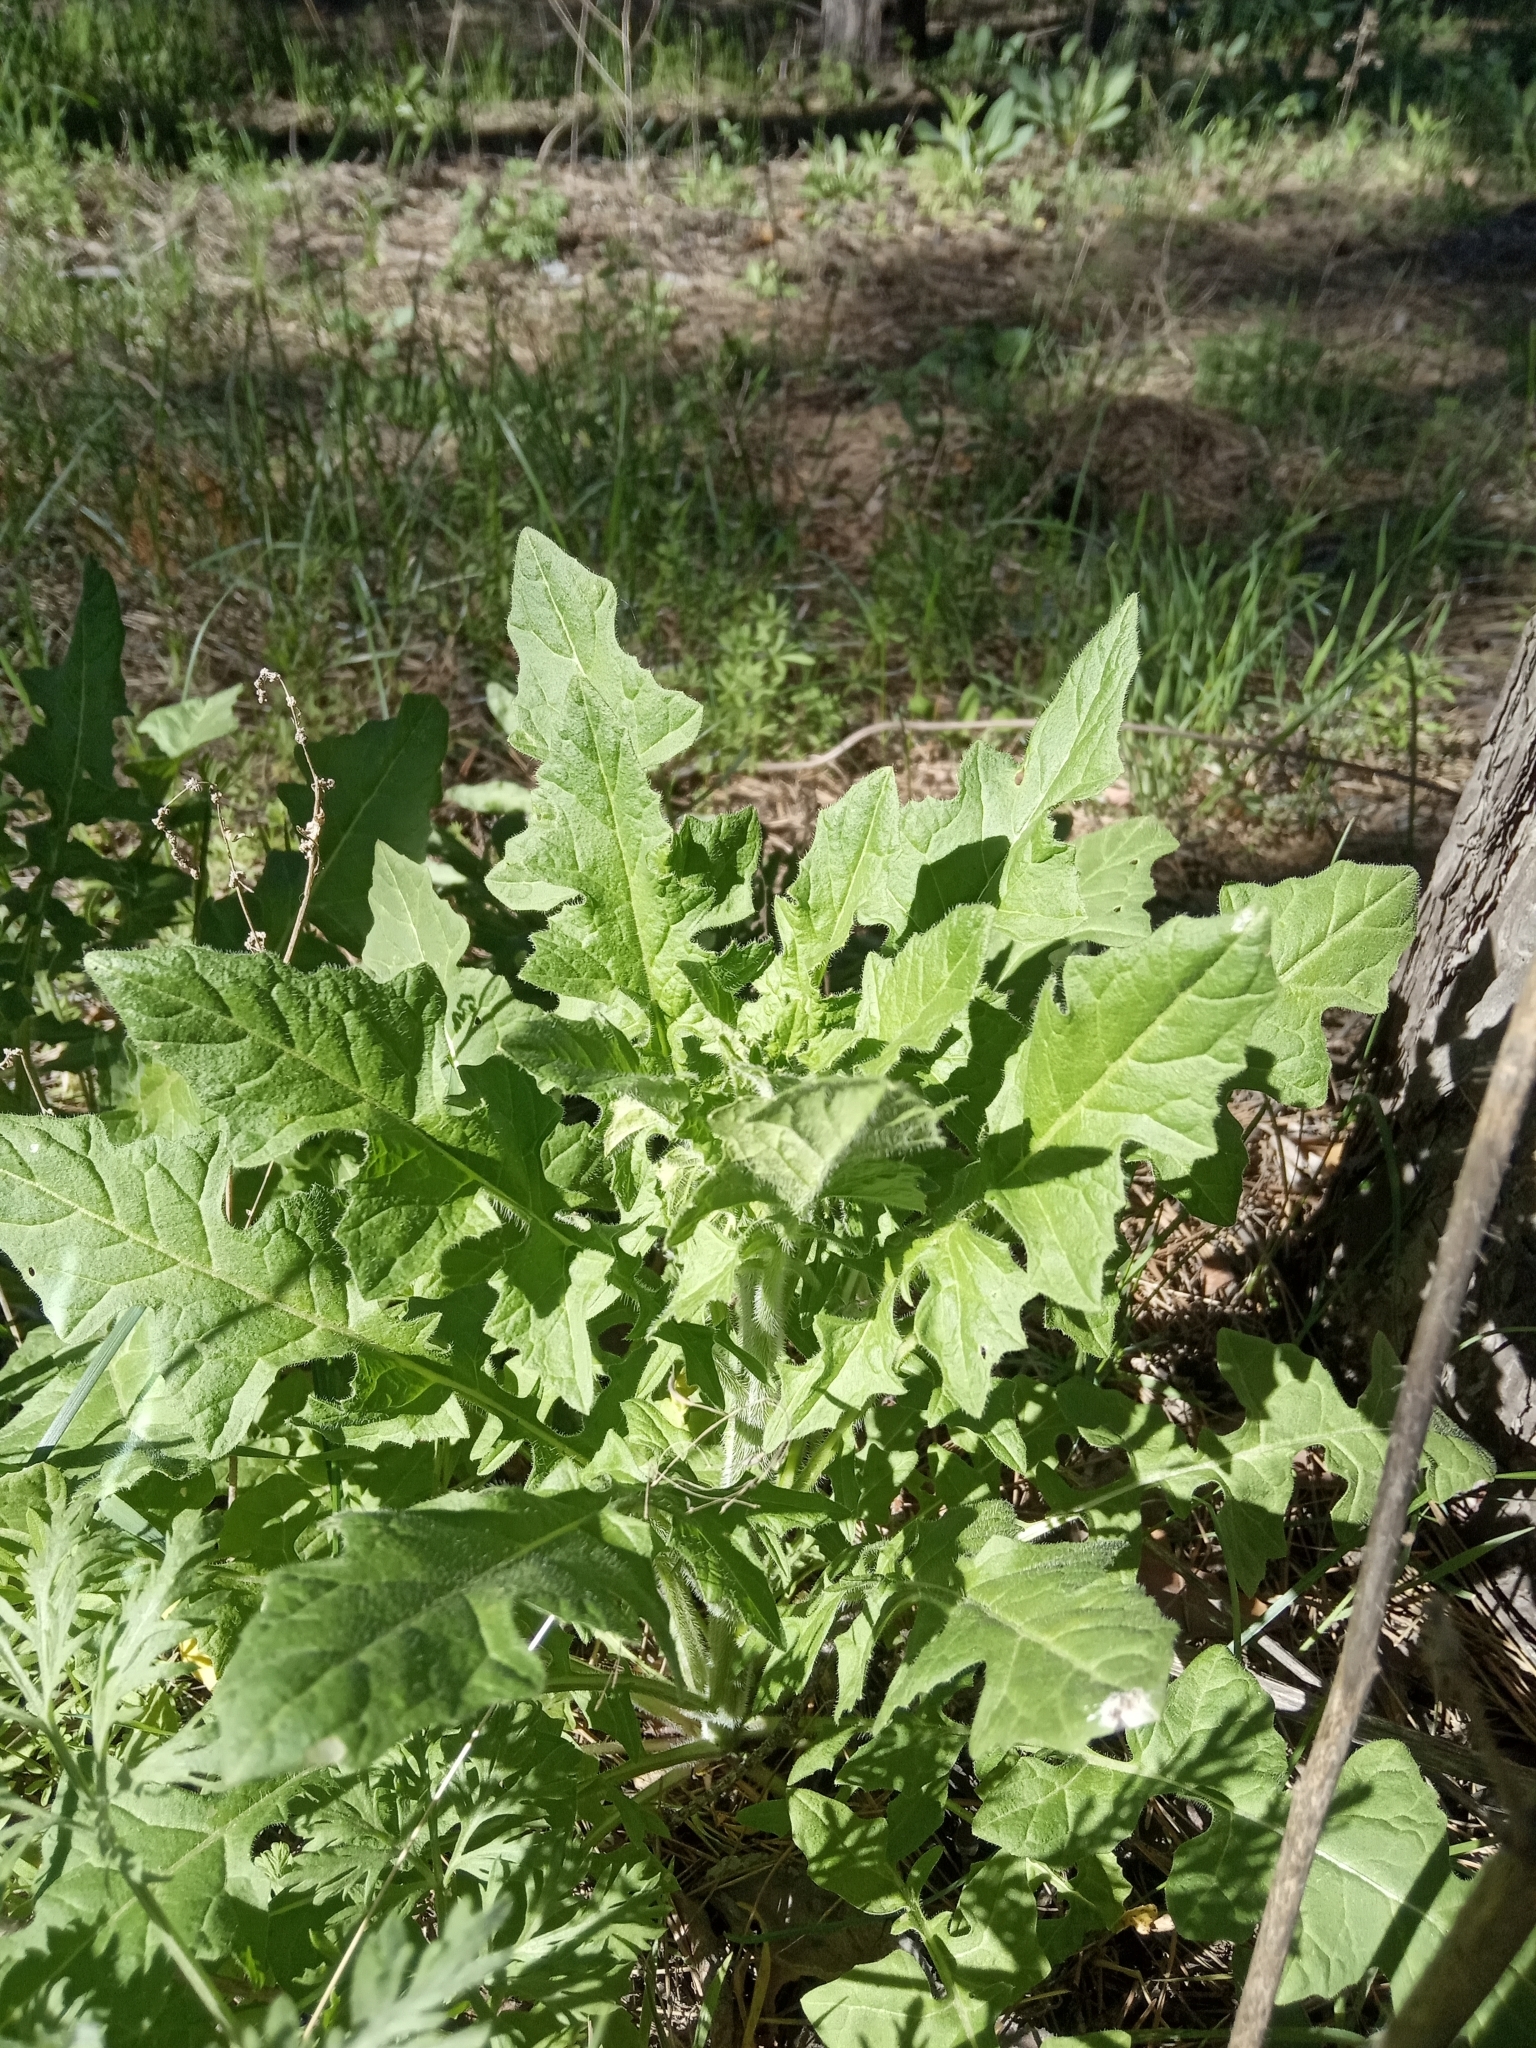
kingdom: Plantae
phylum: Tracheophyta
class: Magnoliopsida
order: Brassicales
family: Brassicaceae
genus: Sisymbrium
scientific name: Sisymbrium loeselii
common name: False london-rocket
